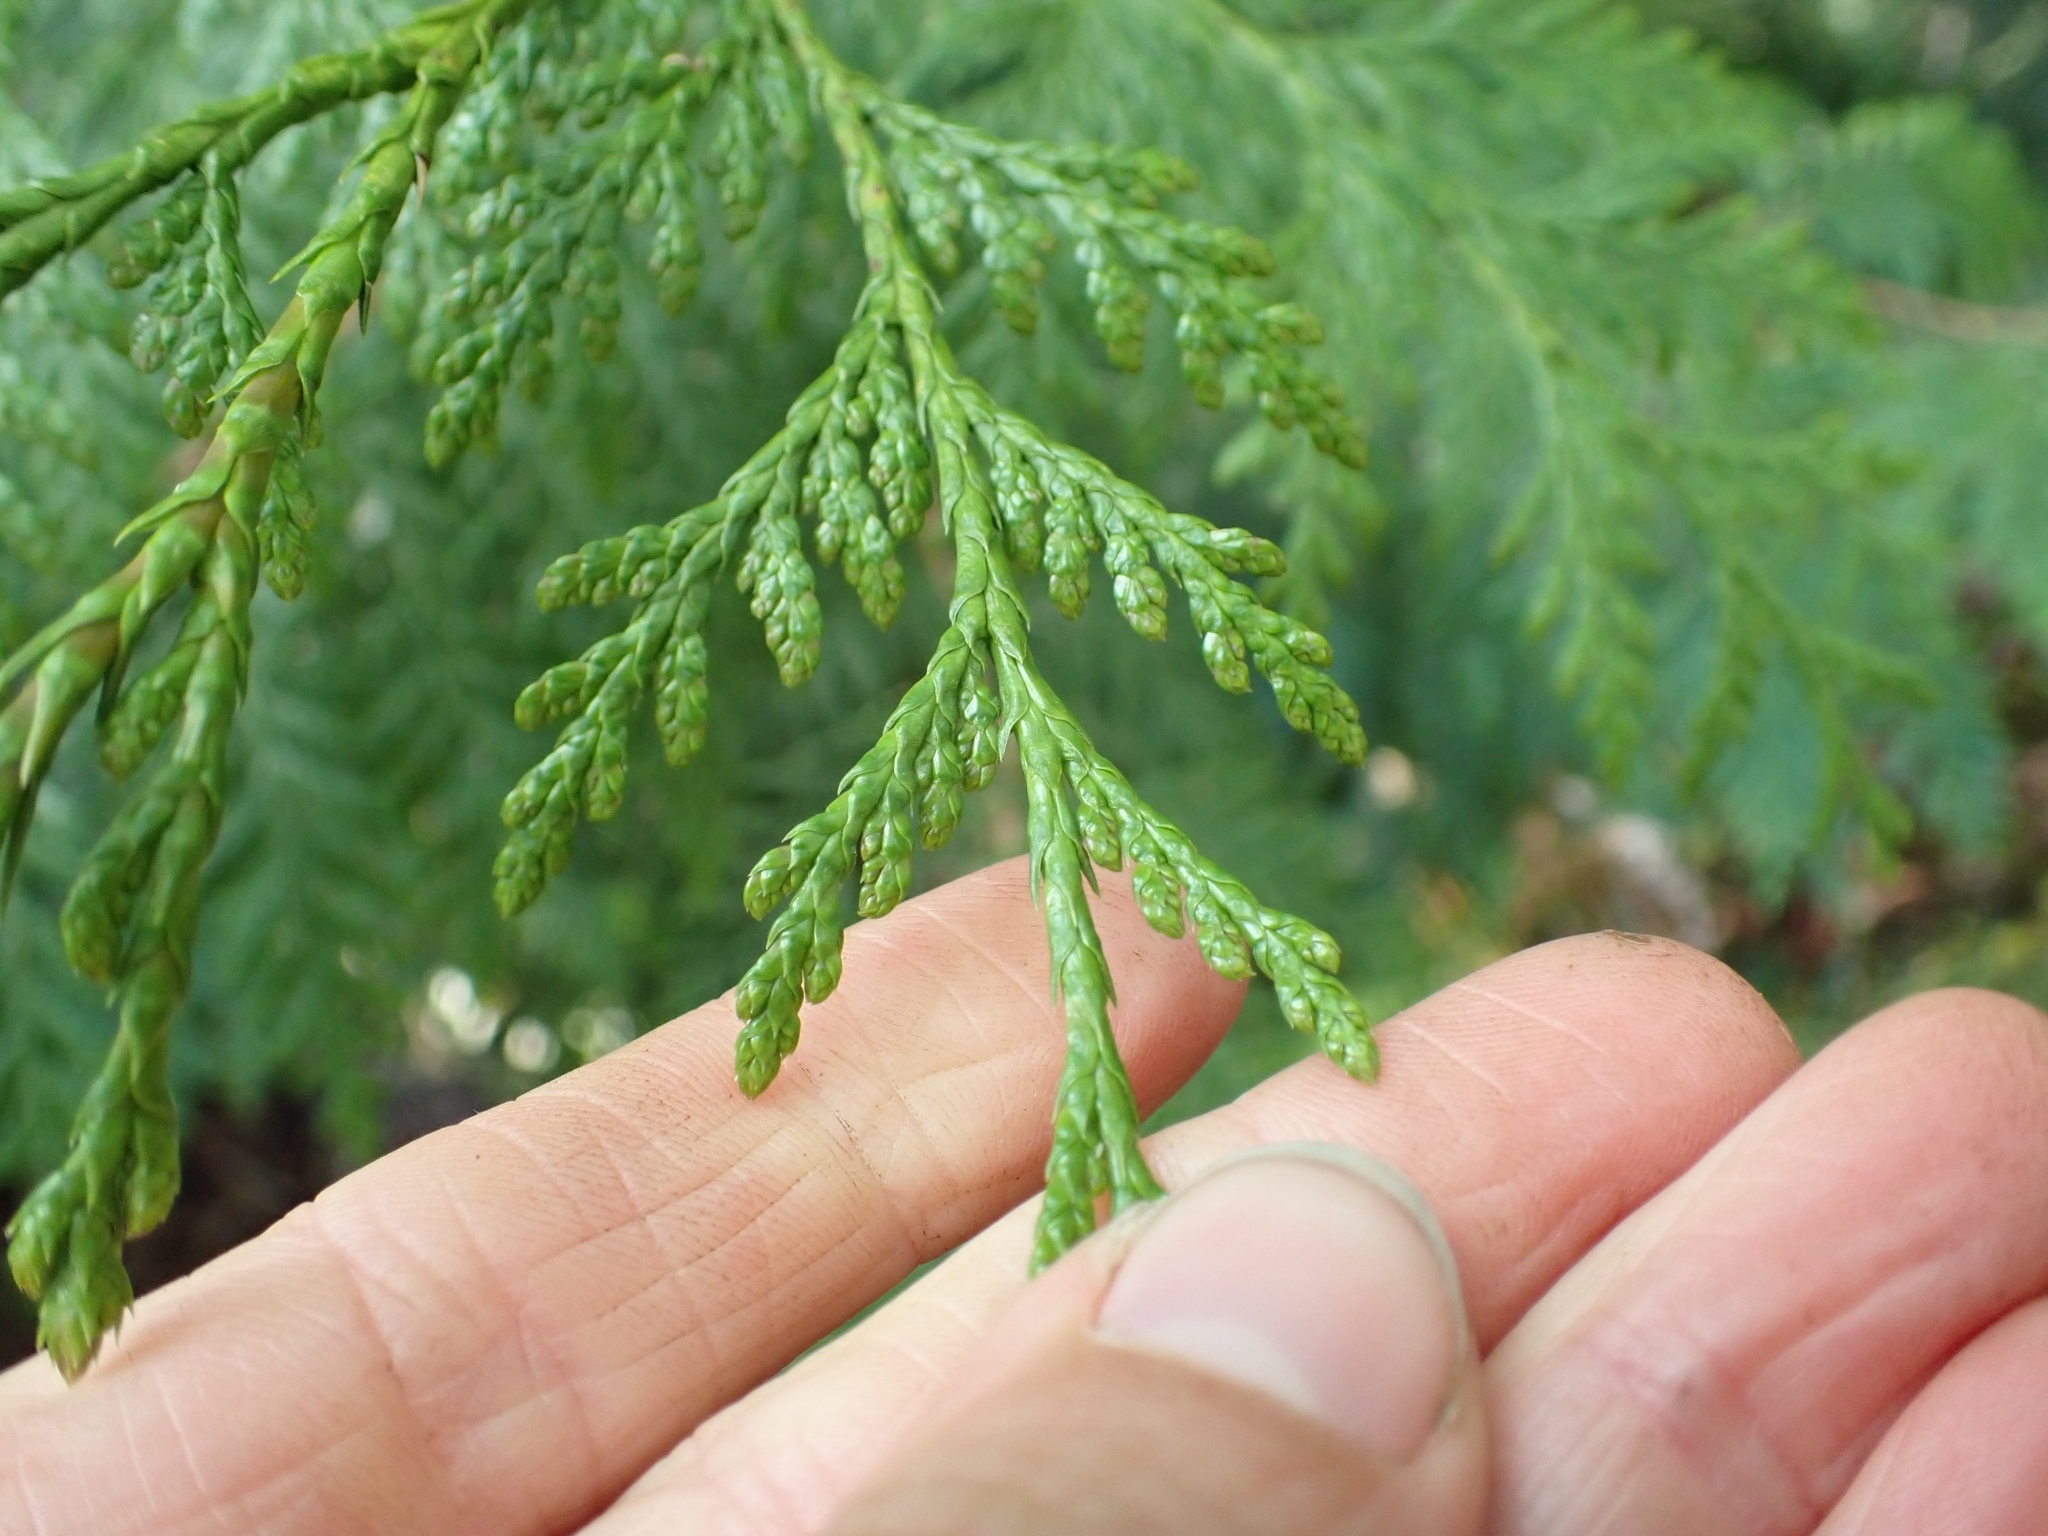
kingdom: Plantae
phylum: Tracheophyta
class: Pinopsida
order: Pinales
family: Cupressaceae
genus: Thuja
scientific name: Thuja plicata
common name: Western red-cedar
